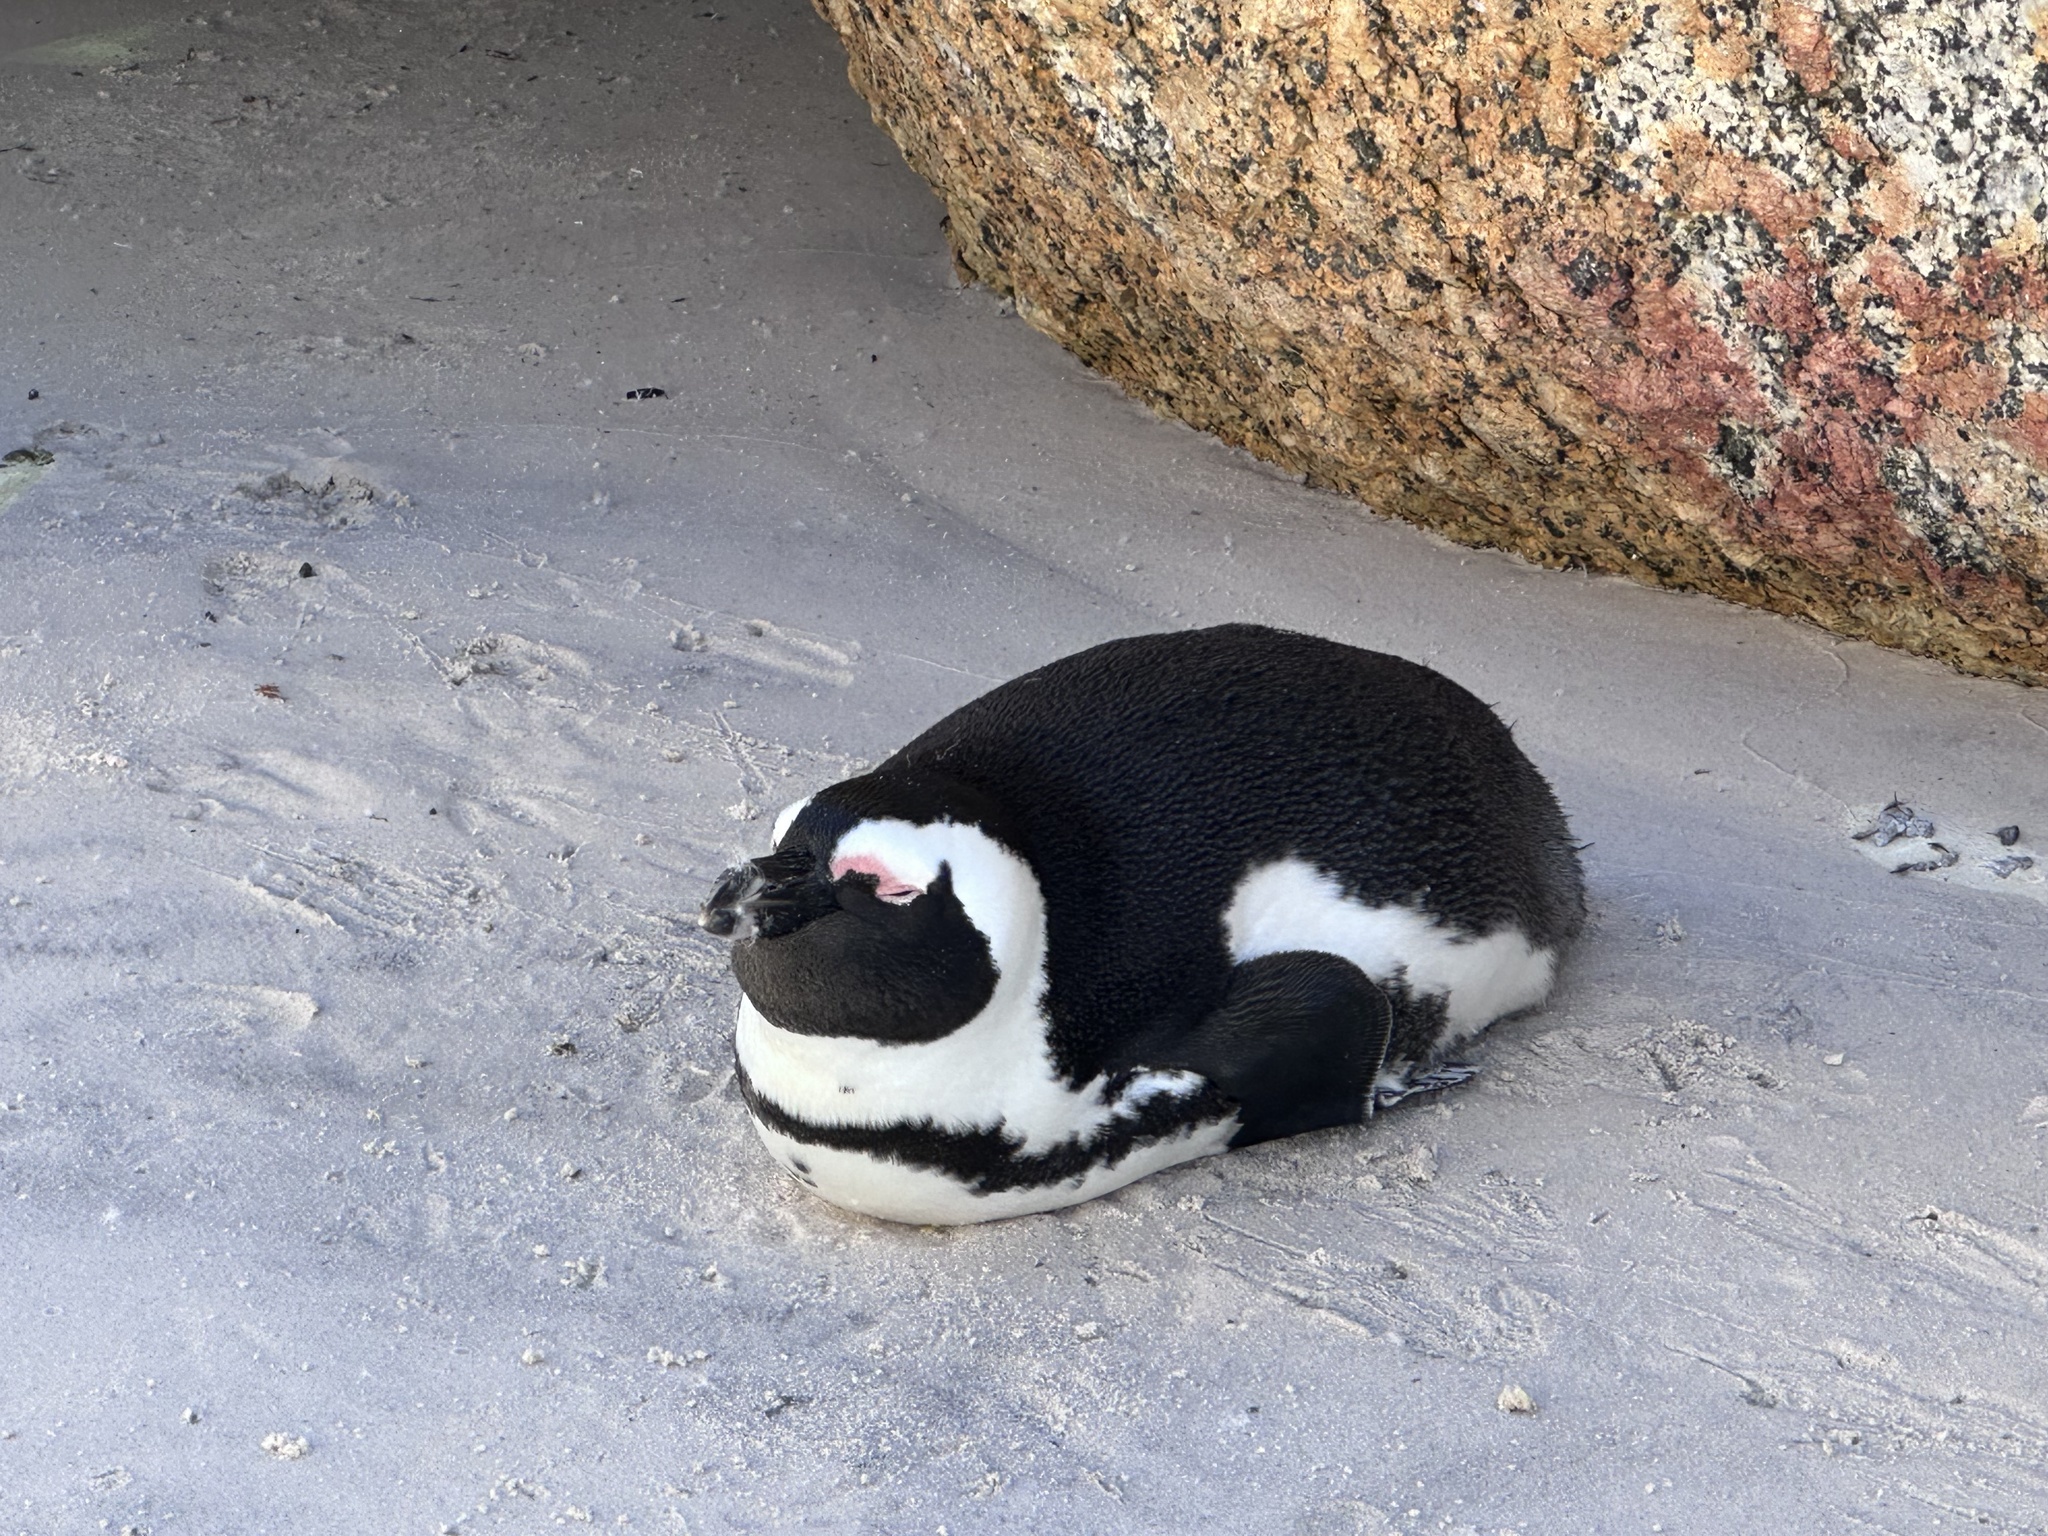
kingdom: Animalia
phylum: Chordata
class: Aves
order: Sphenisciformes
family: Spheniscidae
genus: Spheniscus
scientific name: Spheniscus demersus
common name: African penguin
